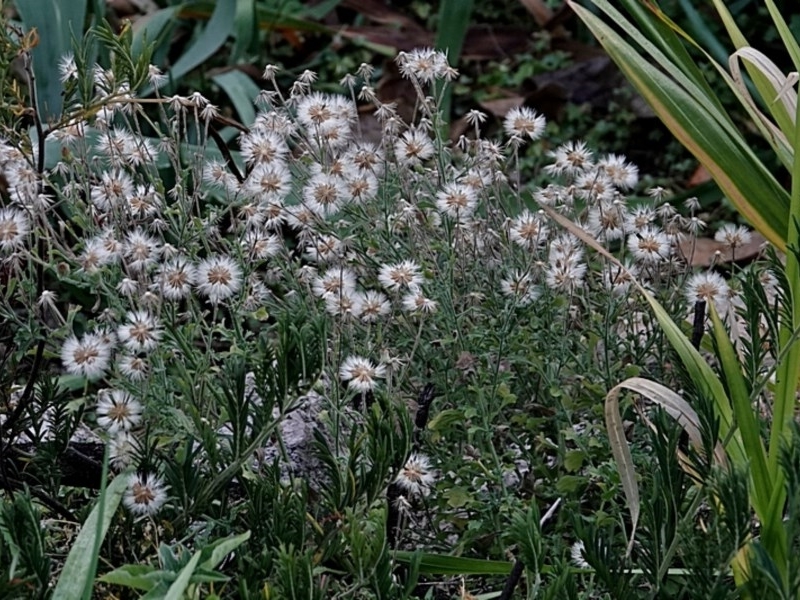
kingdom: Plantae
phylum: Tracheophyta
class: Magnoliopsida
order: Asterales
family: Asteraceae
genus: Vittadinia
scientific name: Vittadinia cuneata
